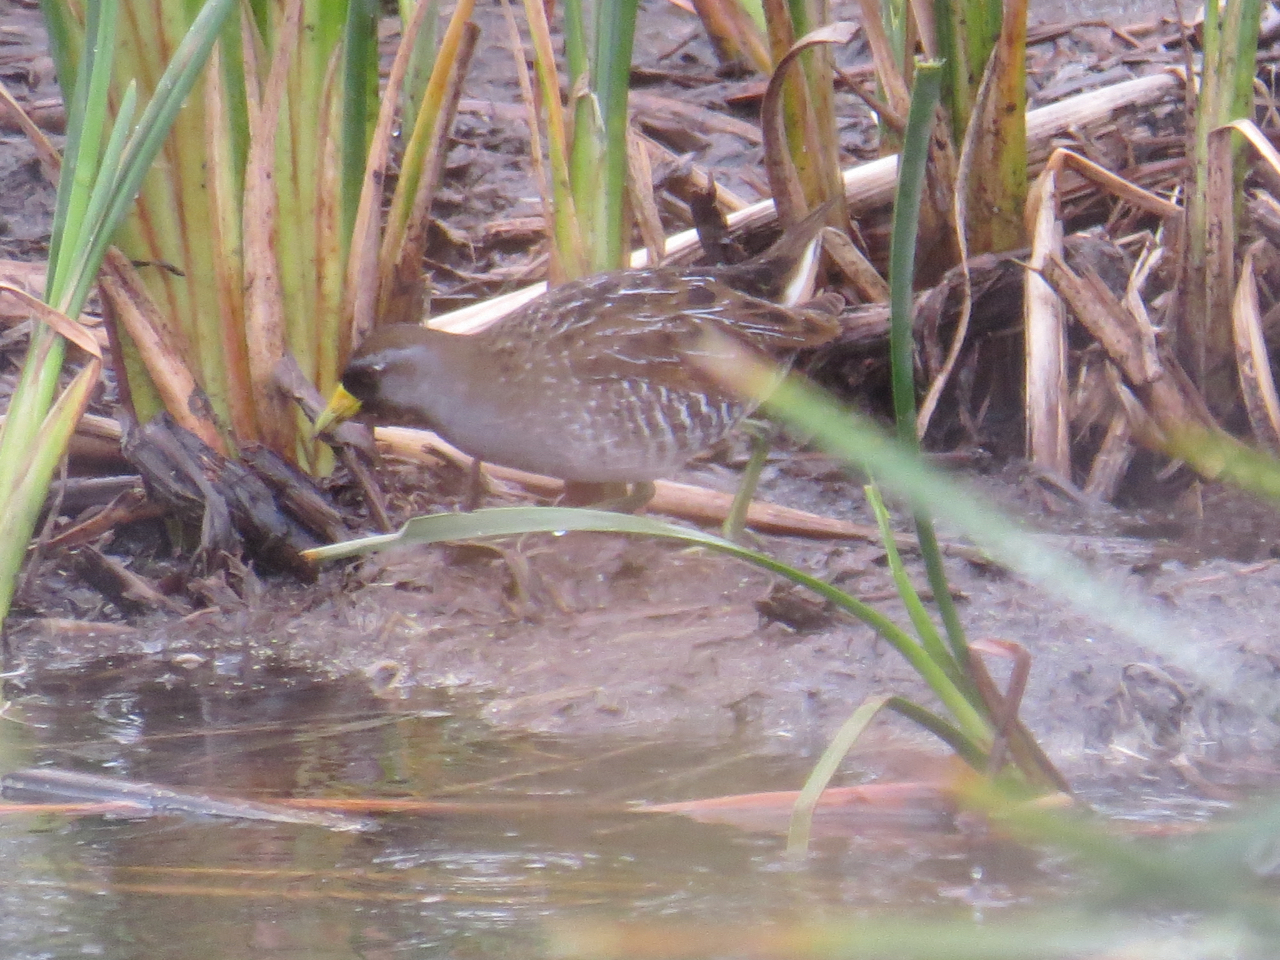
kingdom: Animalia
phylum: Chordata
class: Aves
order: Gruiformes
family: Rallidae
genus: Porzana
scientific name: Porzana carolina
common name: Sora
